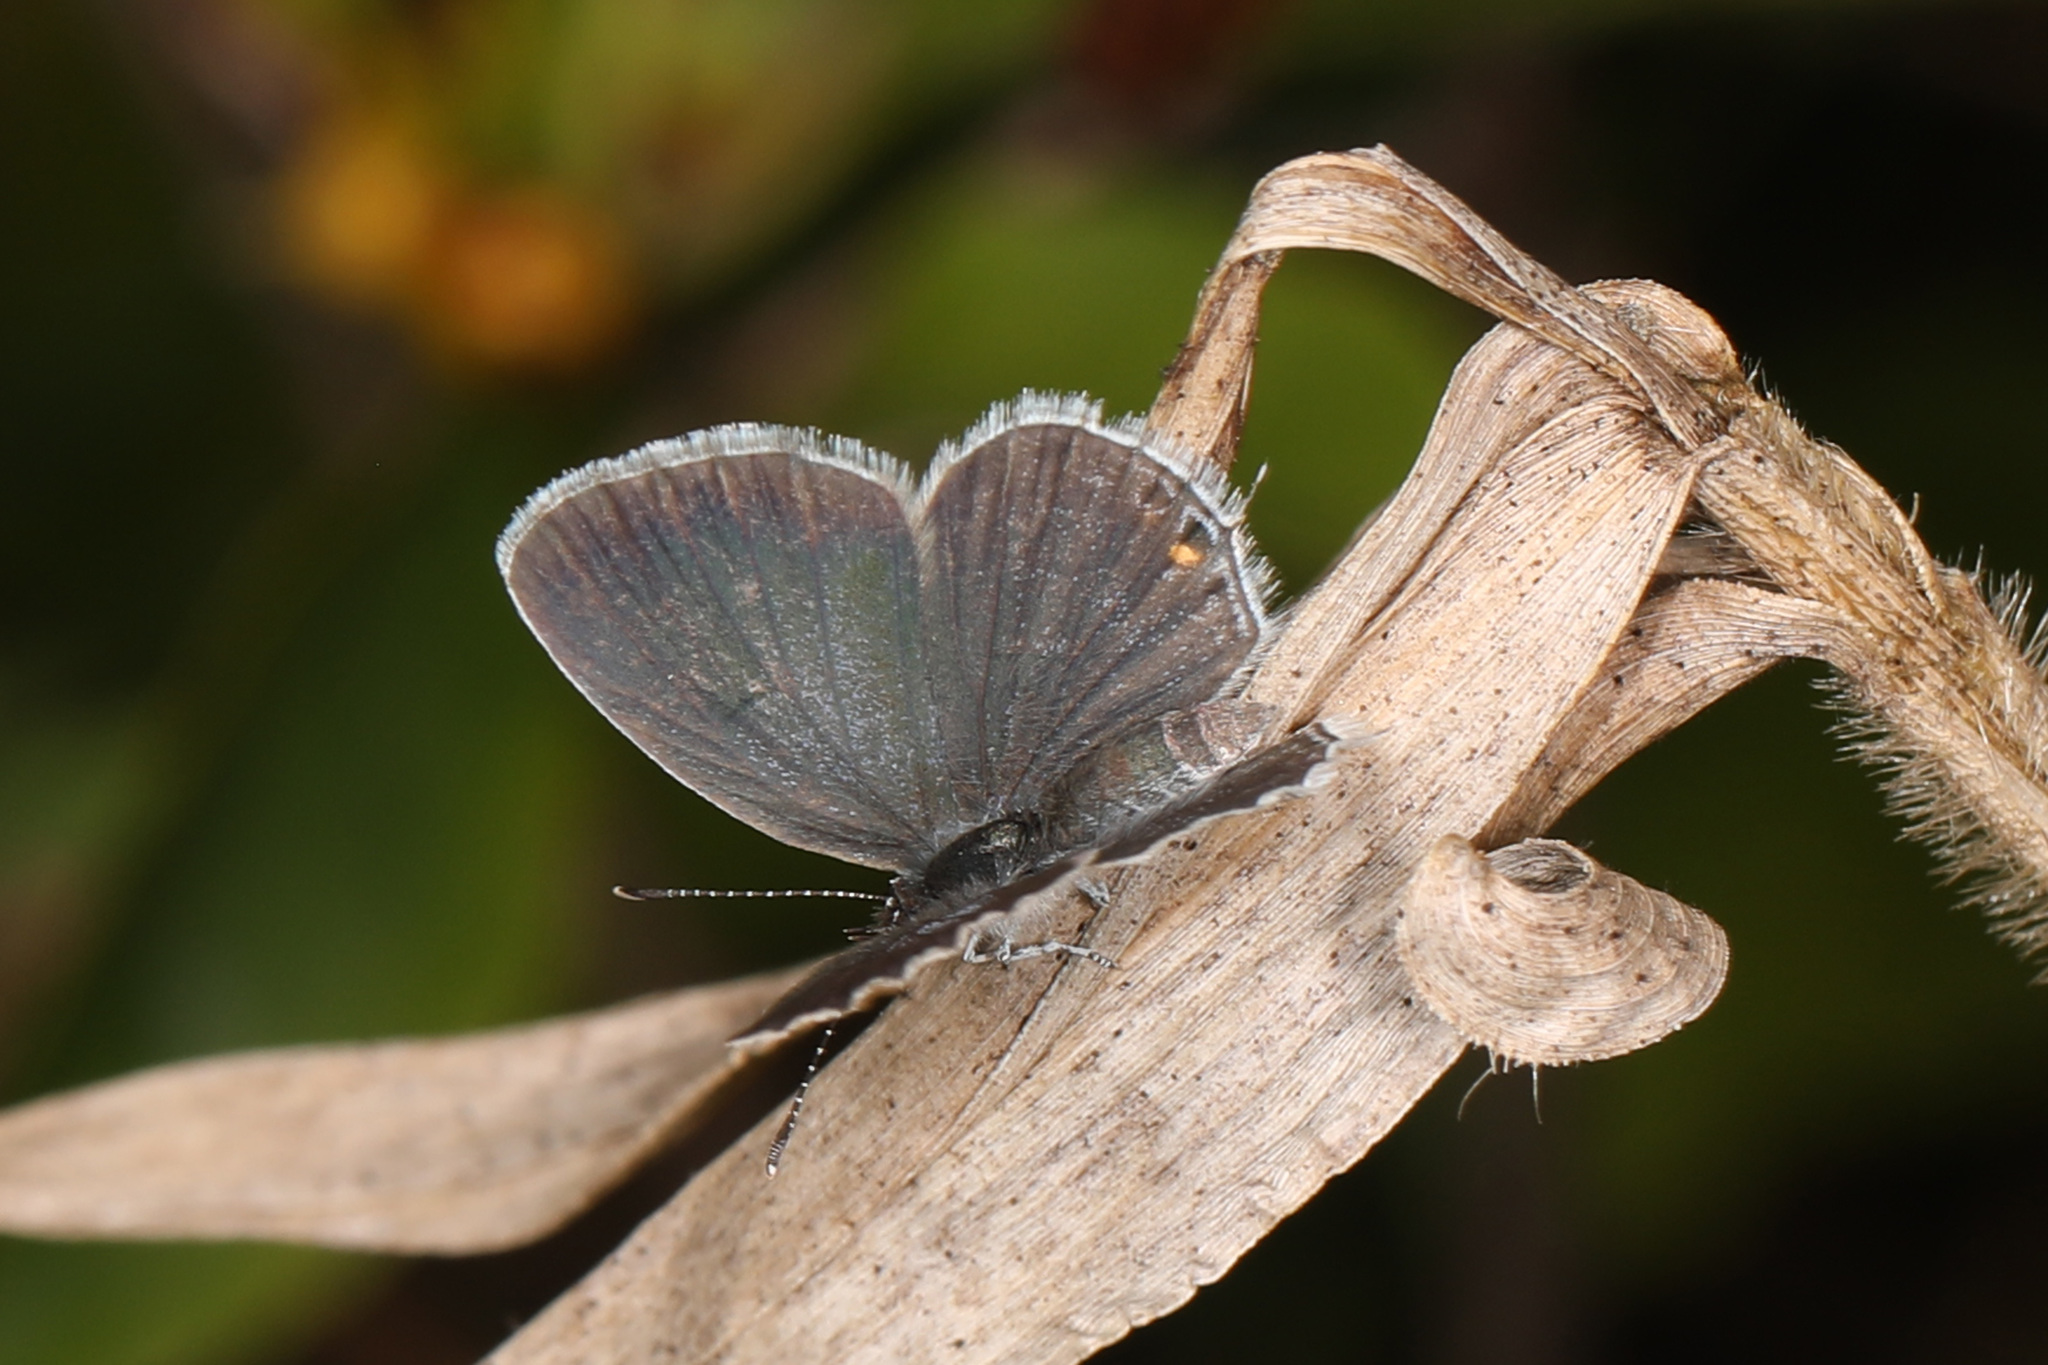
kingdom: Animalia
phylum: Arthropoda
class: Insecta
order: Lepidoptera
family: Lycaenidae
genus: Elkalyce
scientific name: Elkalyce comyntas
